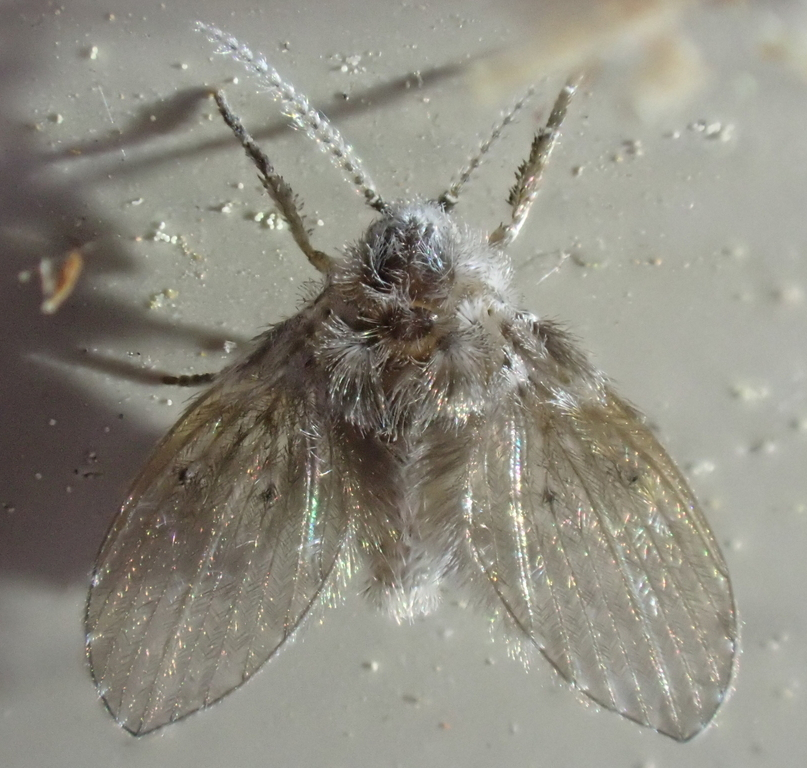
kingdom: Animalia
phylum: Arthropoda
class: Insecta
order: Diptera
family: Psychodidae
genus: Clogmia
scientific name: Clogmia albipunctatus
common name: White-spotted moth fly
